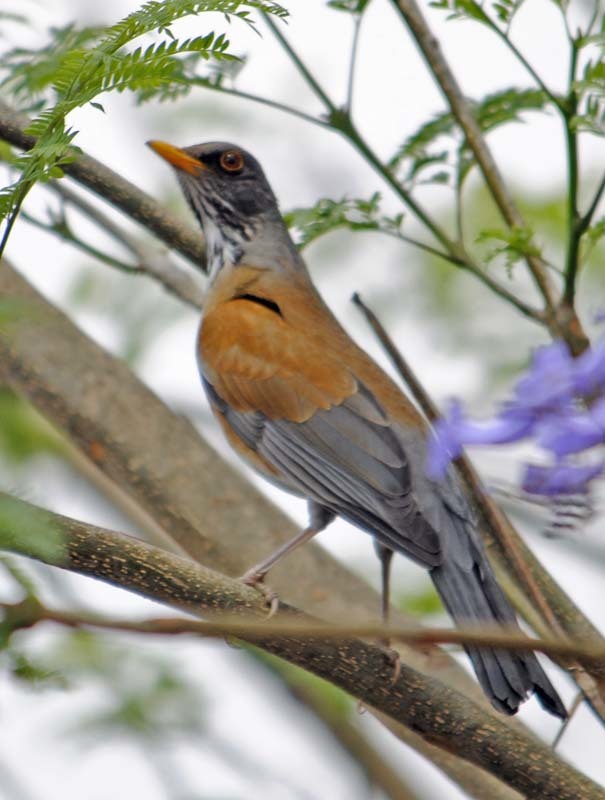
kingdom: Animalia
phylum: Chordata
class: Aves
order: Passeriformes
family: Turdidae
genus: Turdus
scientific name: Turdus rufopalliatus
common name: Rufous-backed robin
